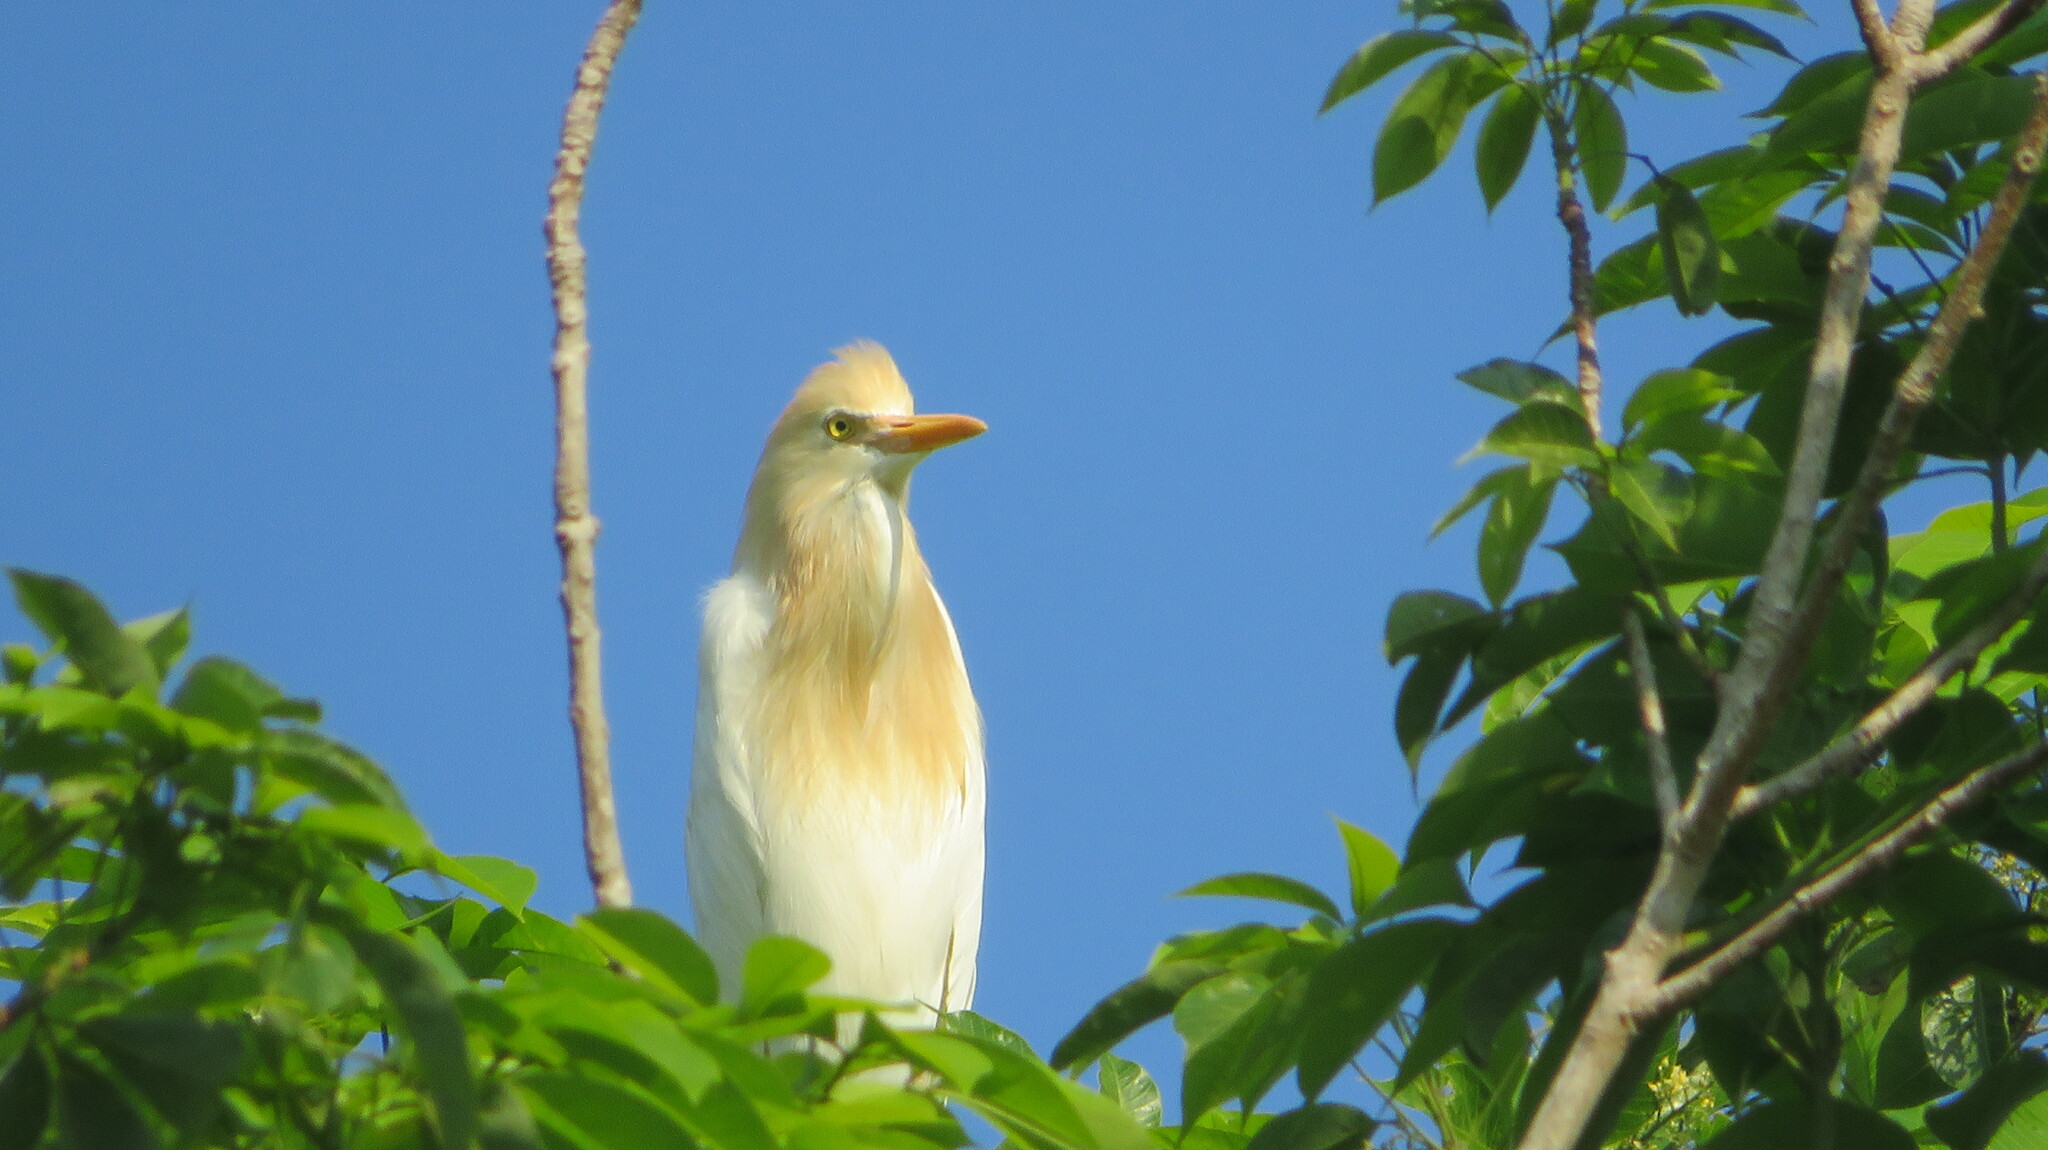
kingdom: Animalia
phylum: Chordata
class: Aves
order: Pelecaniformes
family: Ardeidae
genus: Bubulcus
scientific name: Bubulcus coromandus
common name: Eastern cattle egret
